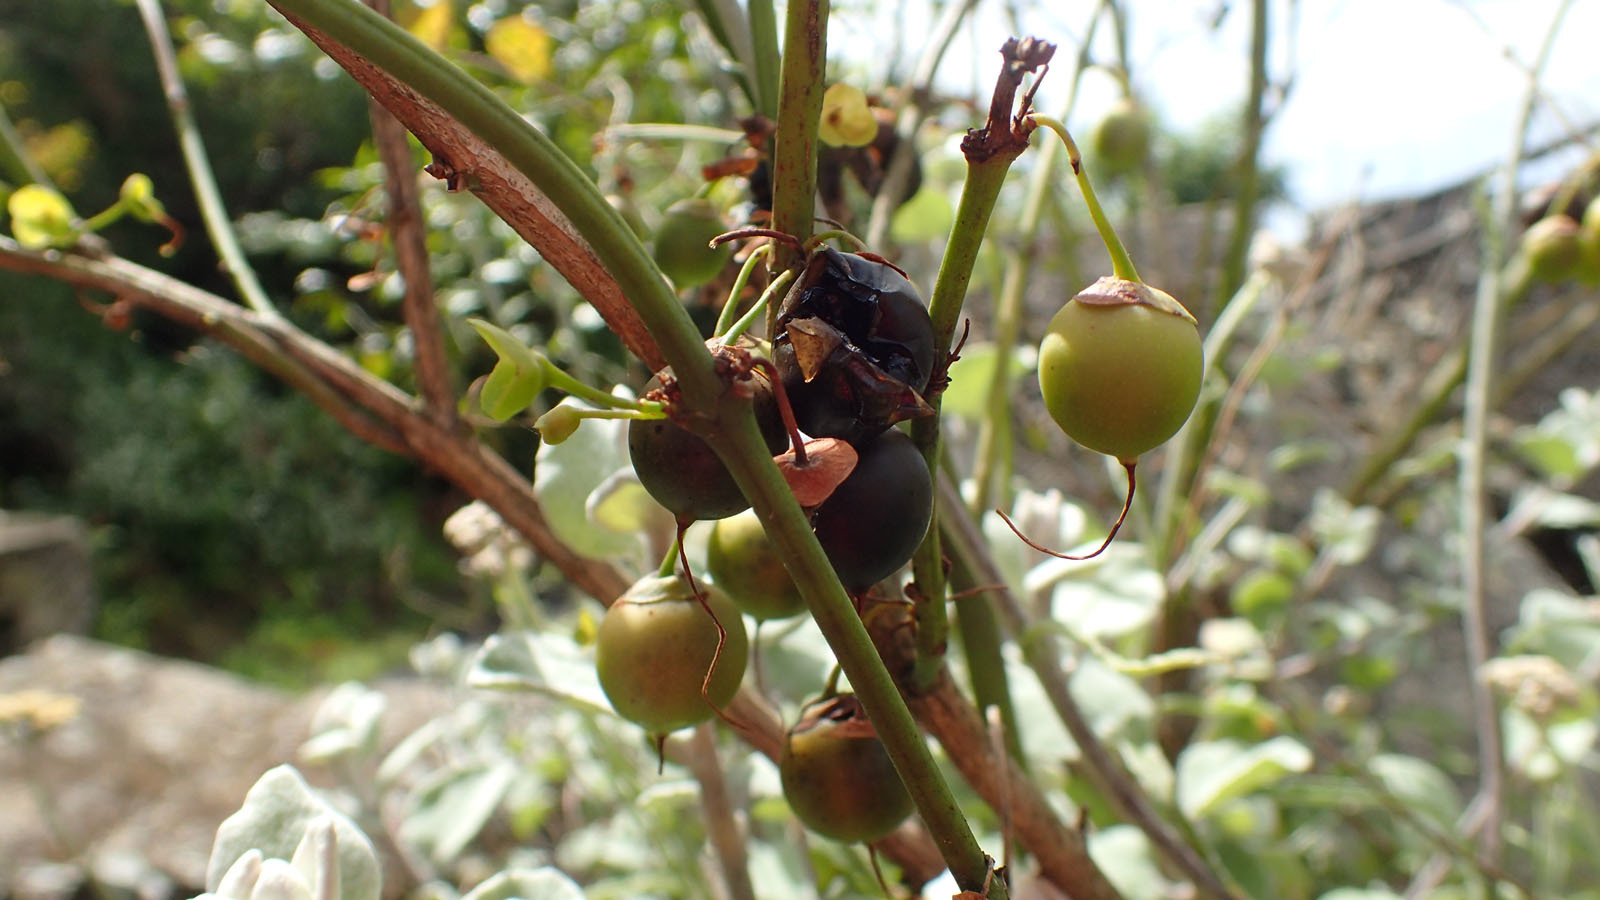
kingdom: Plantae
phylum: Tracheophyta
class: Magnoliopsida
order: Lamiales
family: Stilbaceae
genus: Halleria
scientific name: Halleria lucida
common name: Tree fuschia
